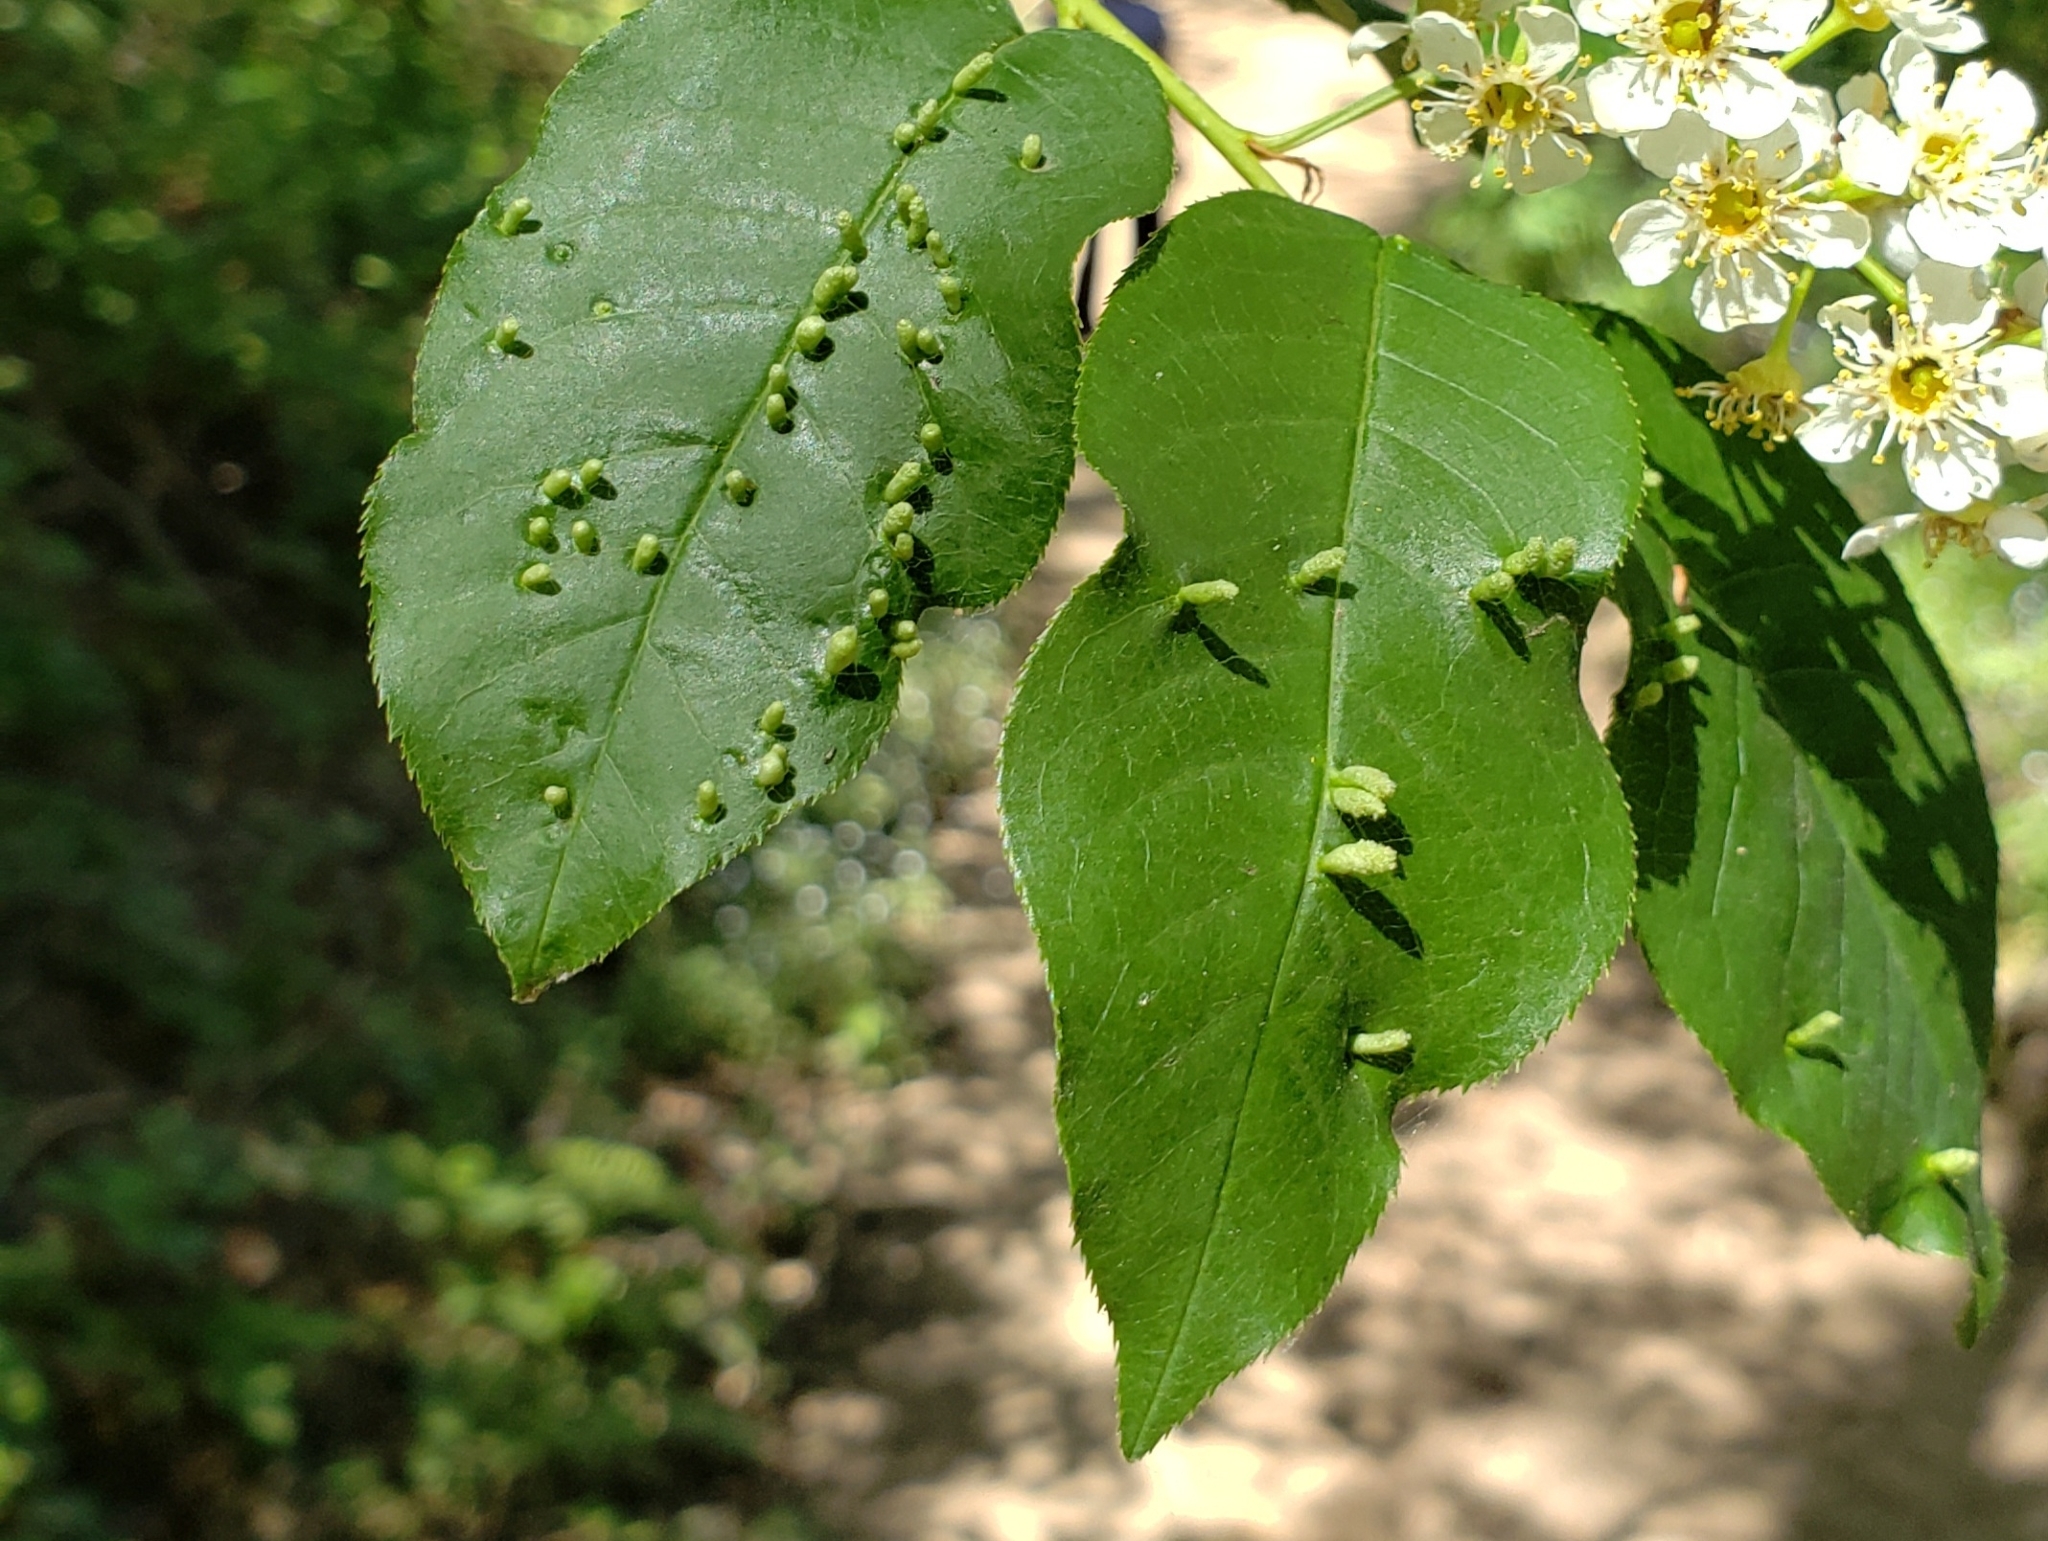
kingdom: Animalia
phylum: Arthropoda
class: Arachnida
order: Trombidiformes
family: Eriophyidae
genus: Eriophyes
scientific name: Eriophyes emarginatae
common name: Plum leaf gall mite
